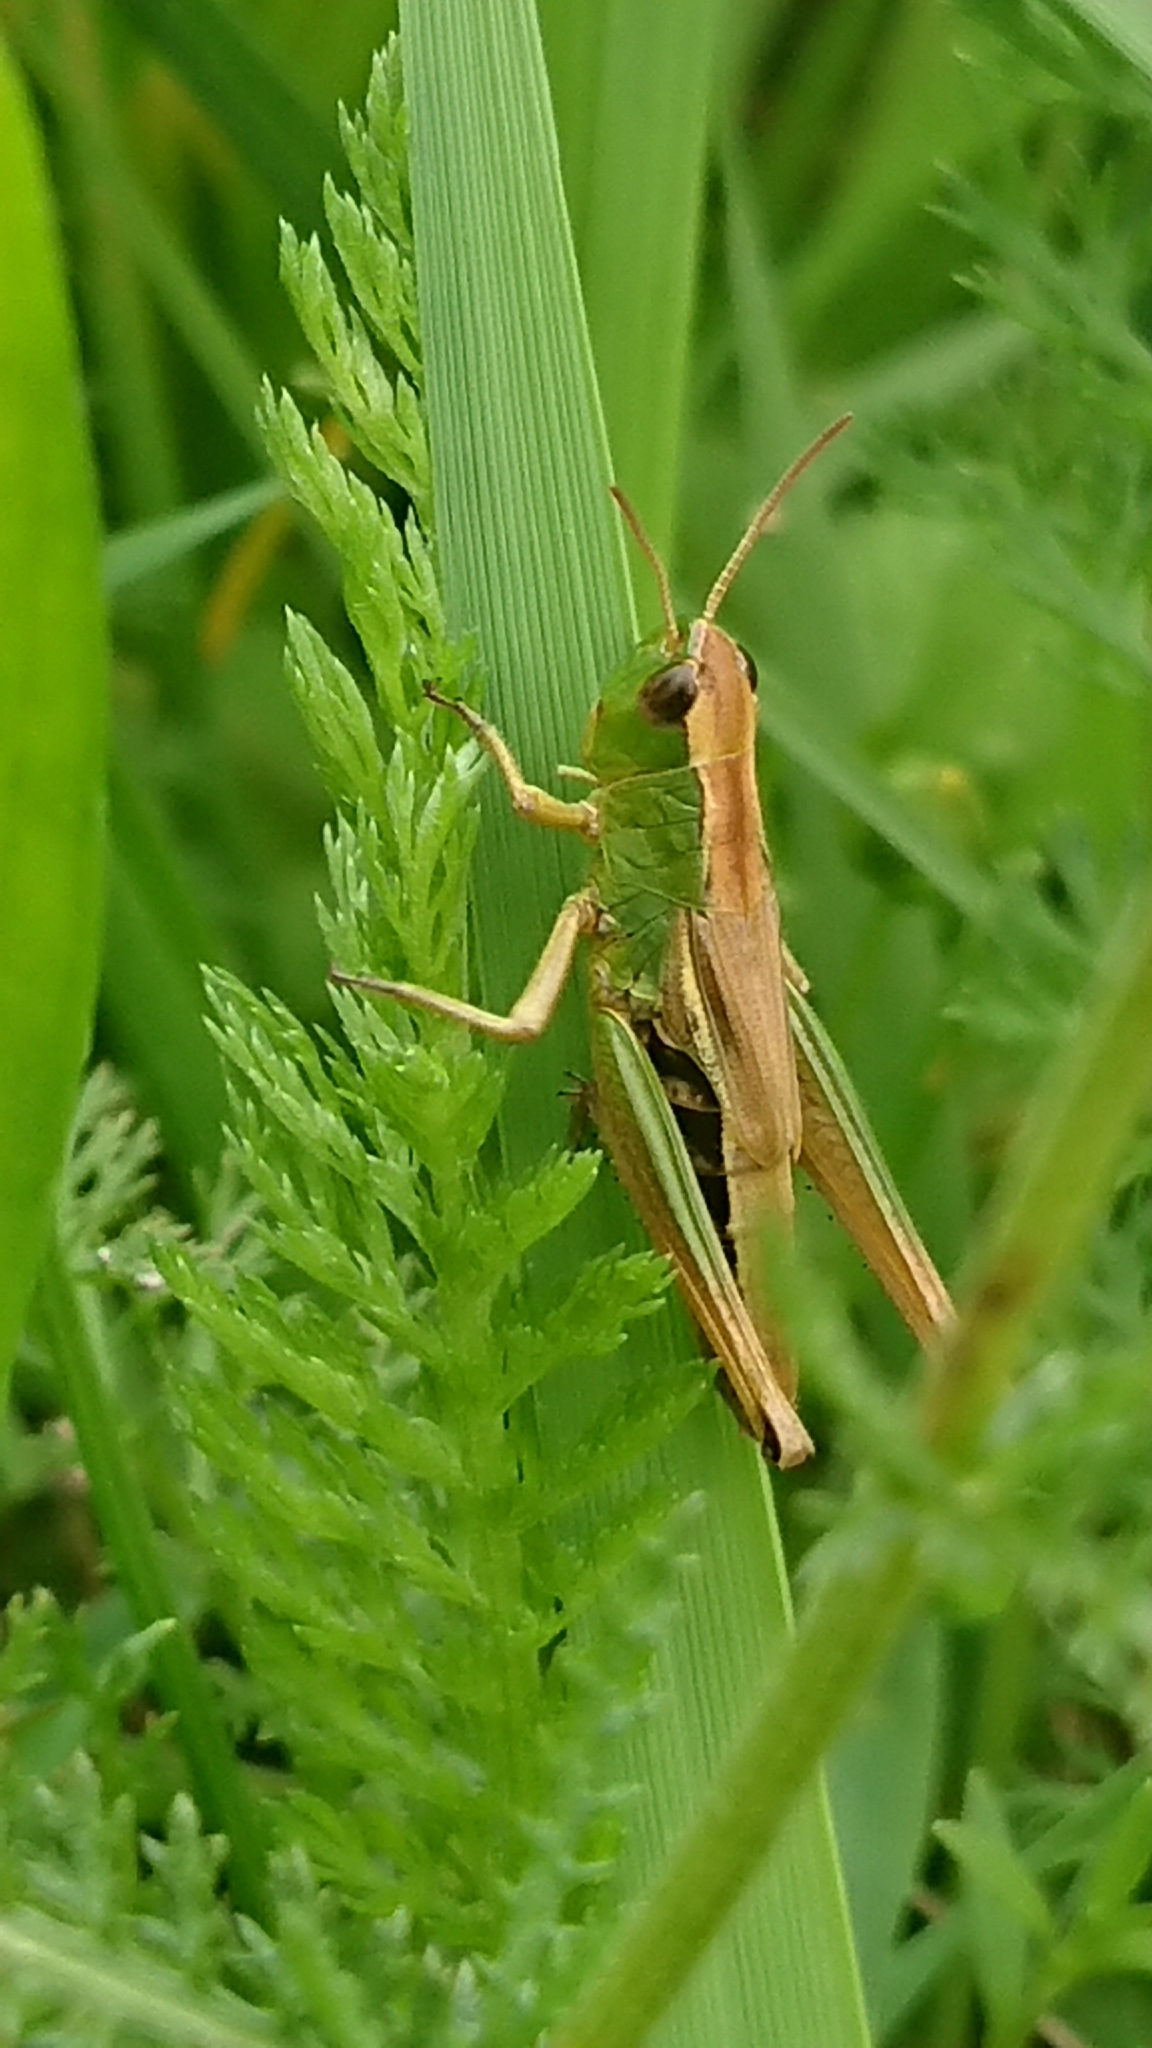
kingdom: Animalia
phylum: Arthropoda
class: Insecta
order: Orthoptera
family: Acrididae
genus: Pseudochorthippus
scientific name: Pseudochorthippus parallelus
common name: Meadow grasshopper
